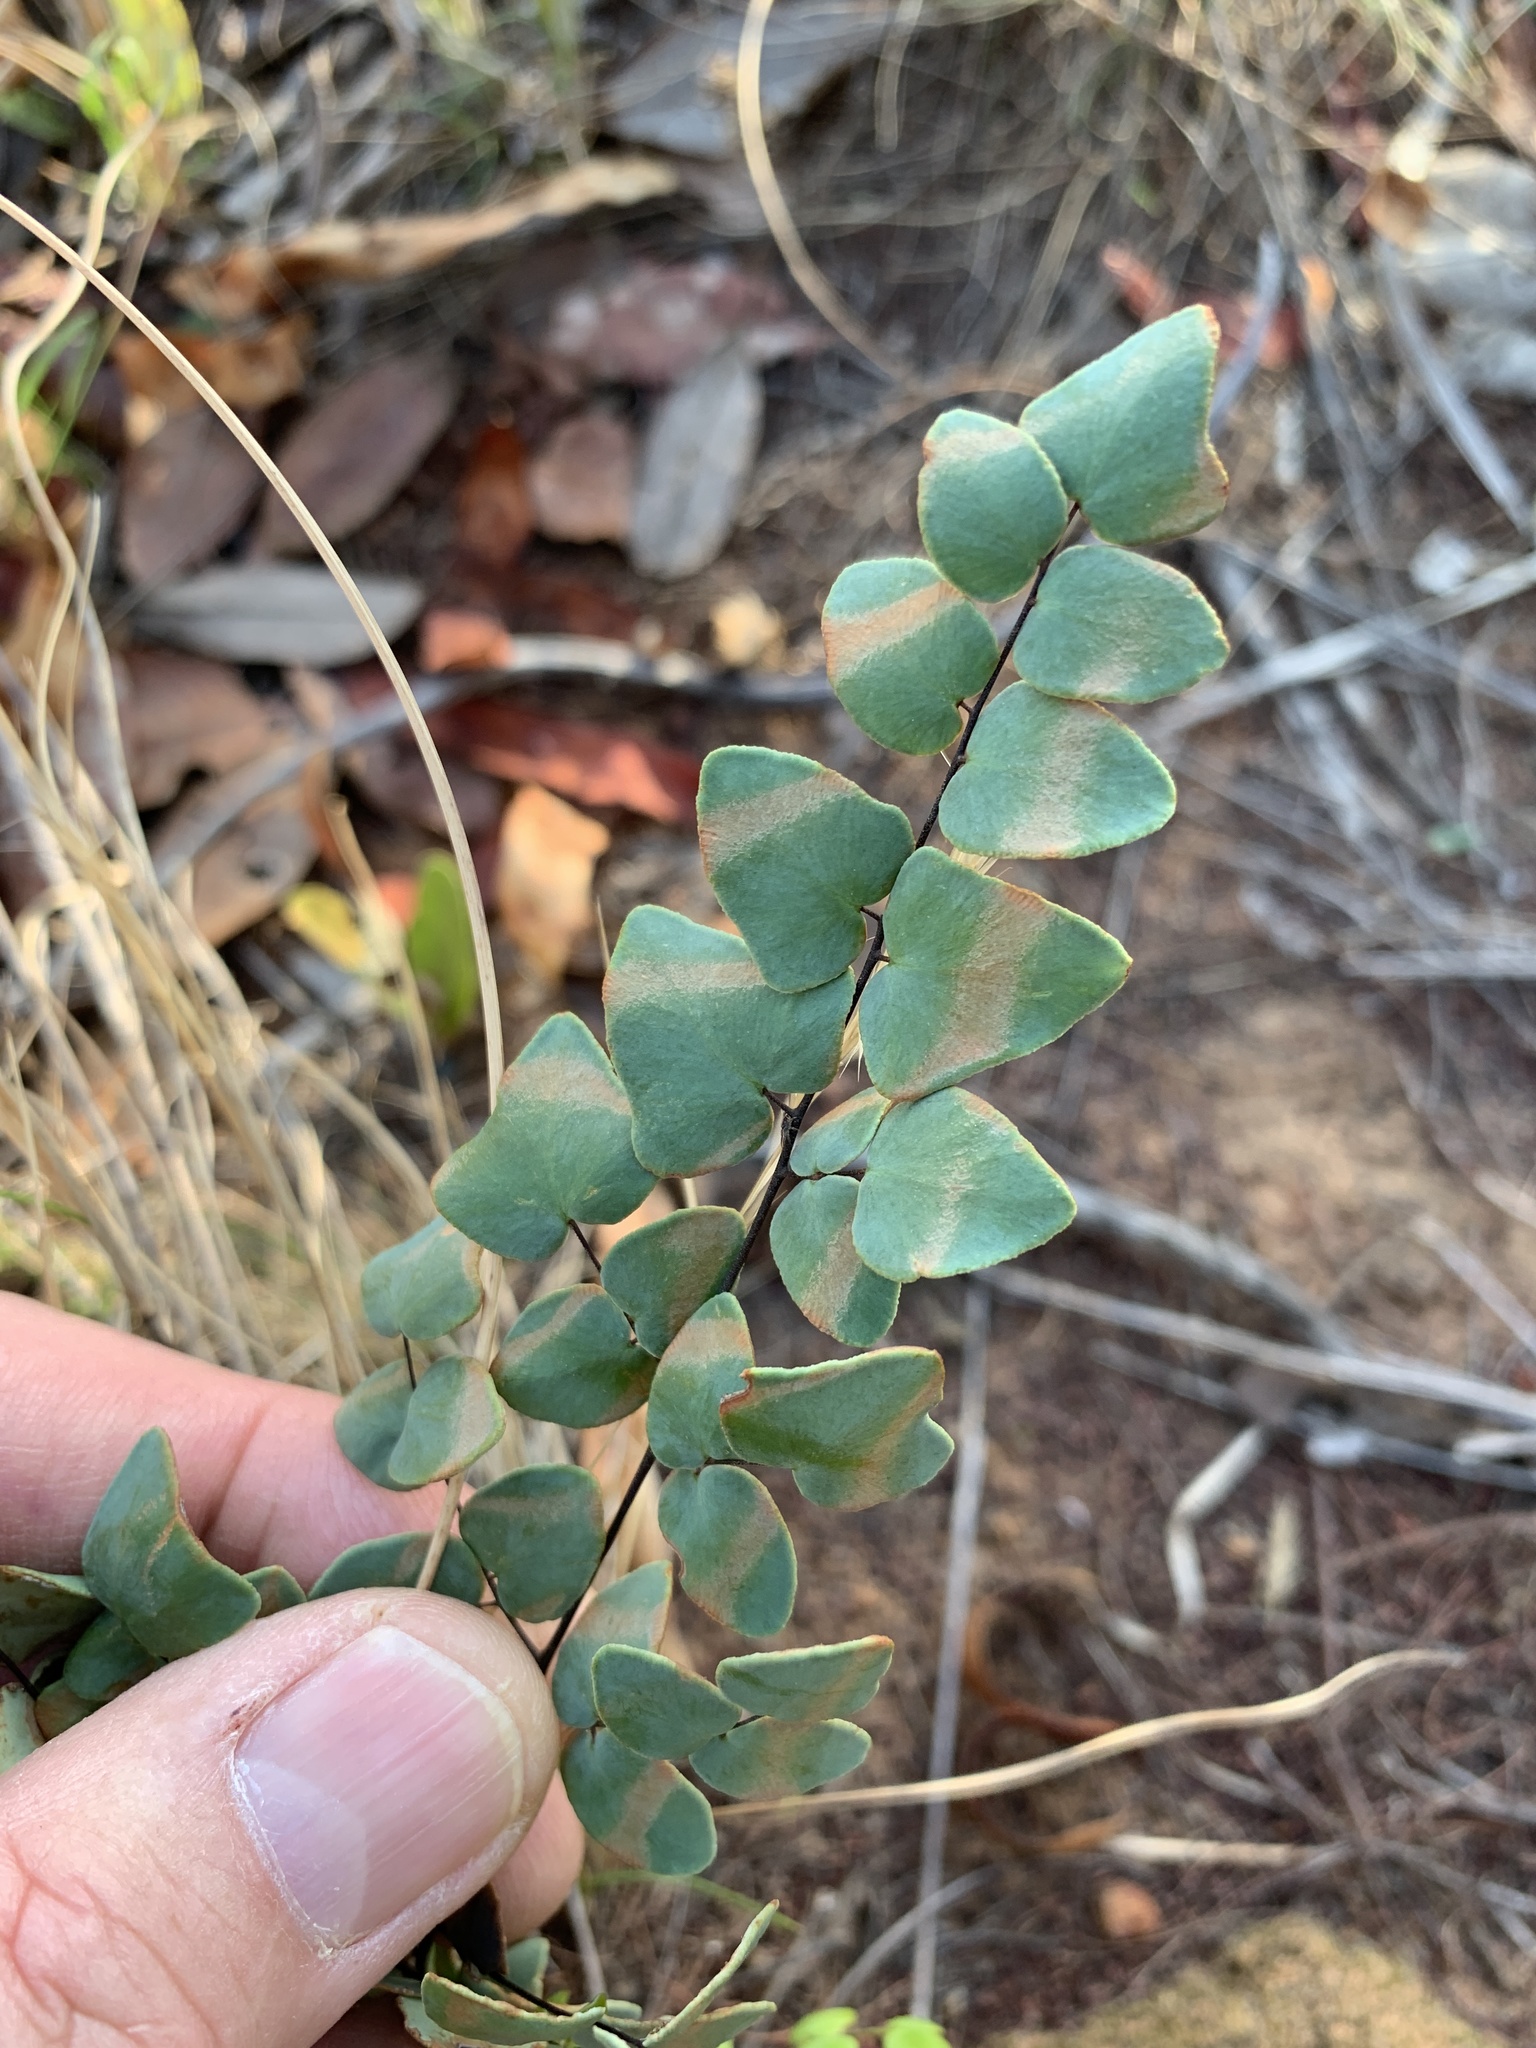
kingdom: Plantae
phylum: Tracheophyta
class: Polypodiopsida
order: Polypodiales
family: Pteridaceae
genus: Pellaea
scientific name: Pellaea calomelanos
